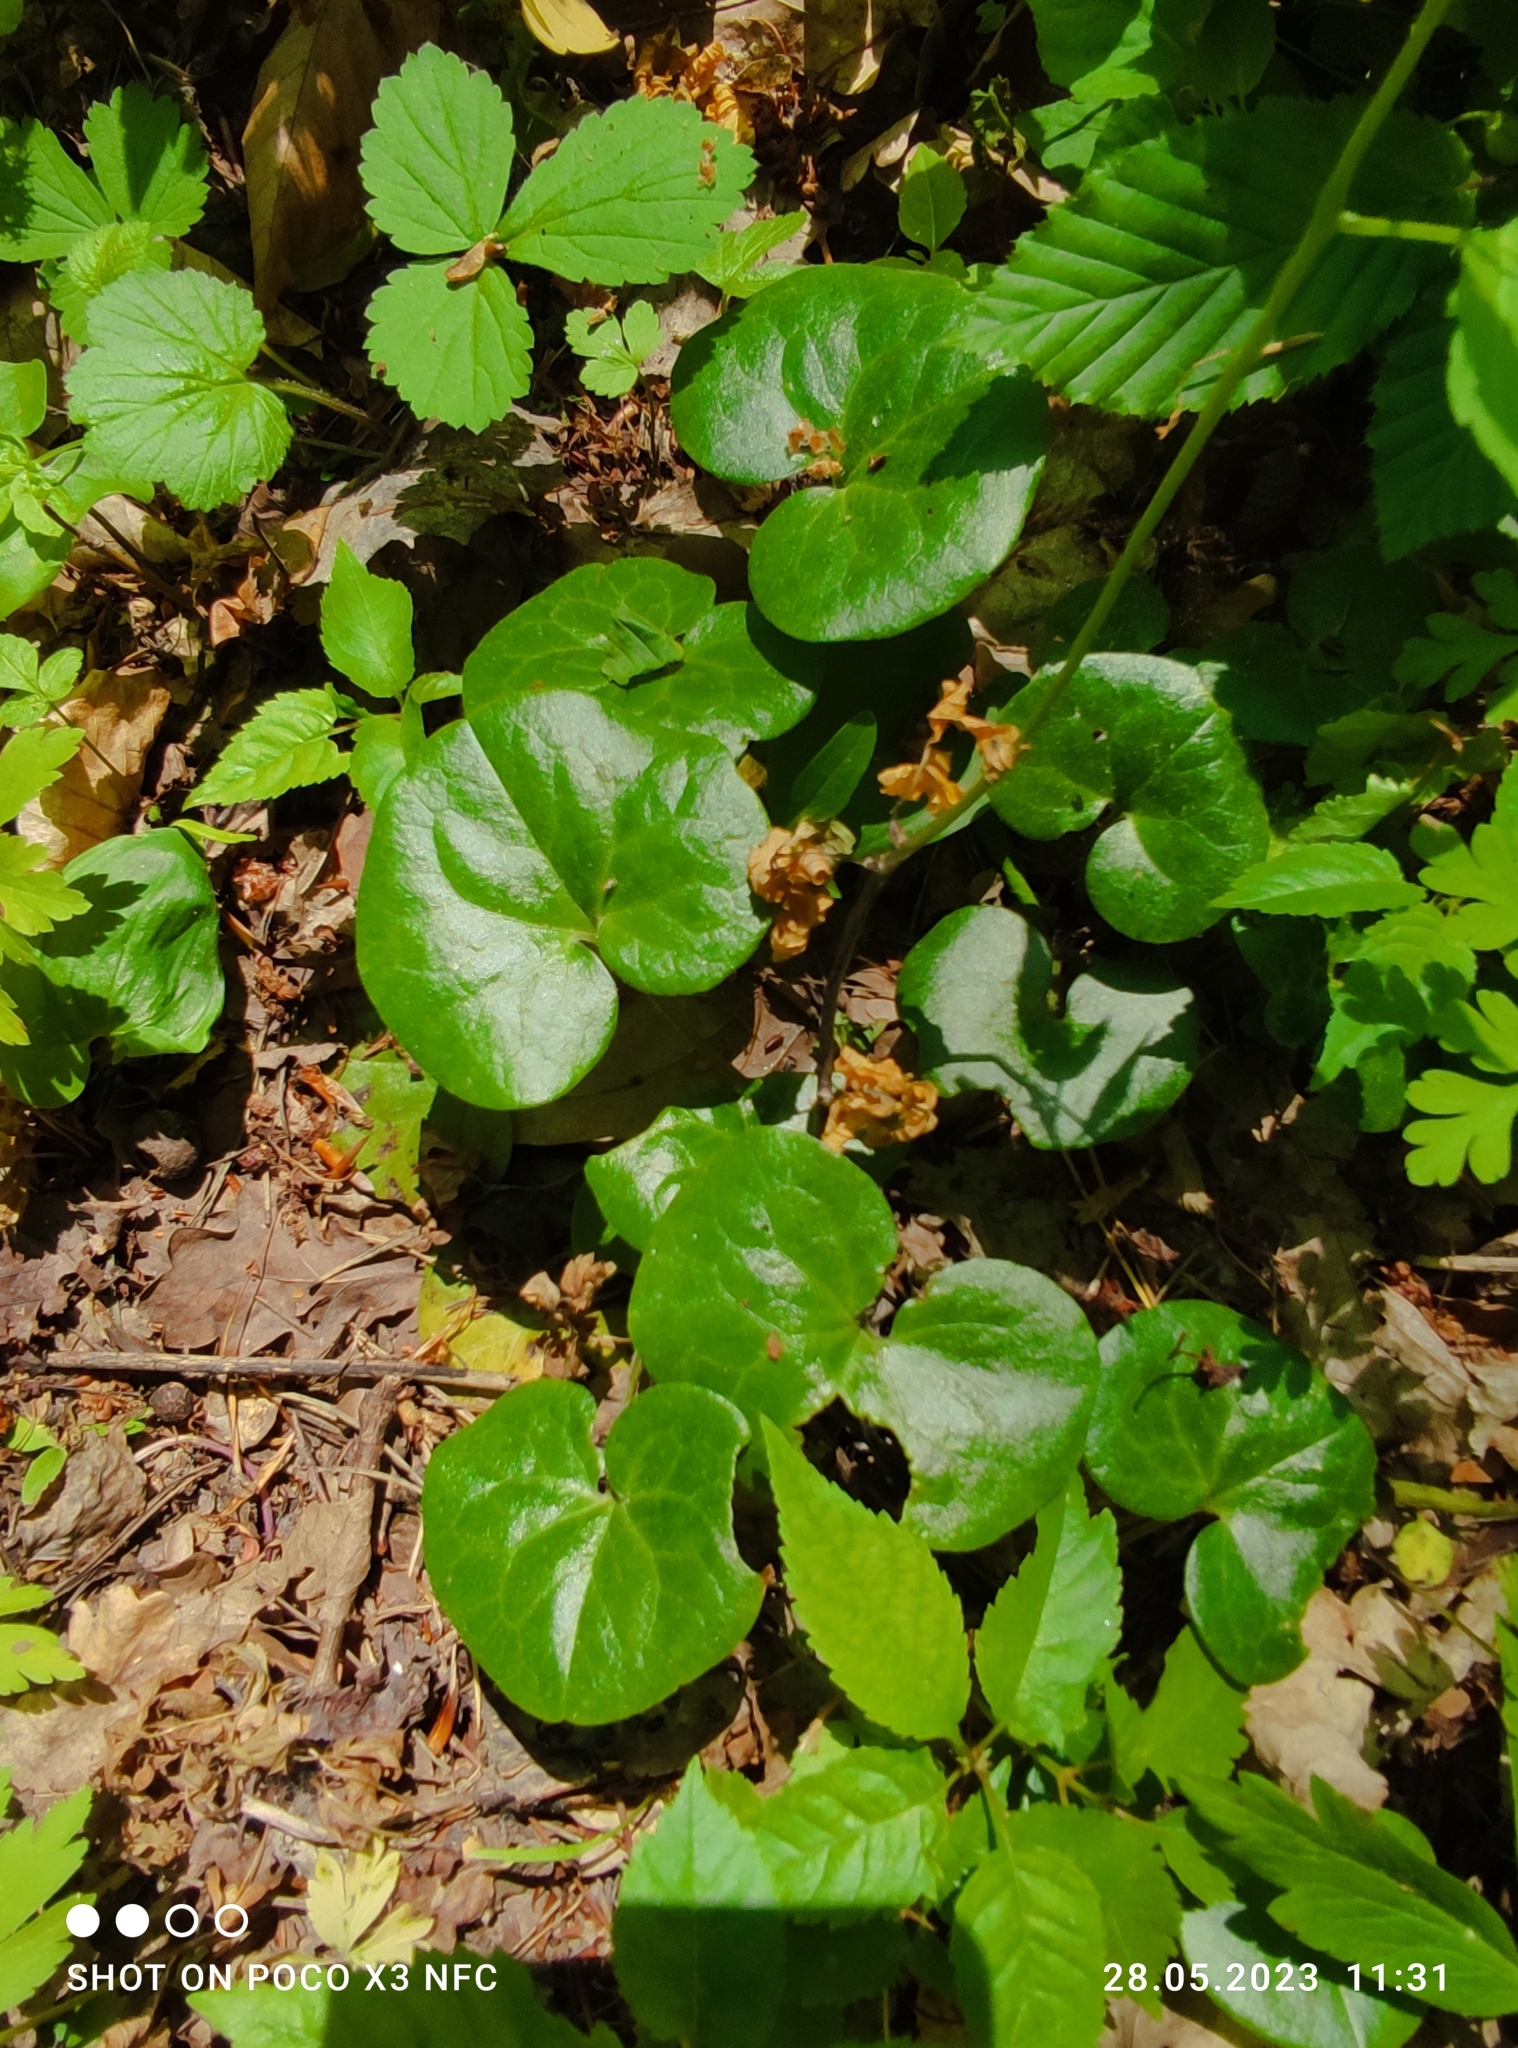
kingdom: Plantae
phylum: Tracheophyta
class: Magnoliopsida
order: Piperales
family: Aristolochiaceae
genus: Asarum
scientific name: Asarum europaeum
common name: Asarabacca
